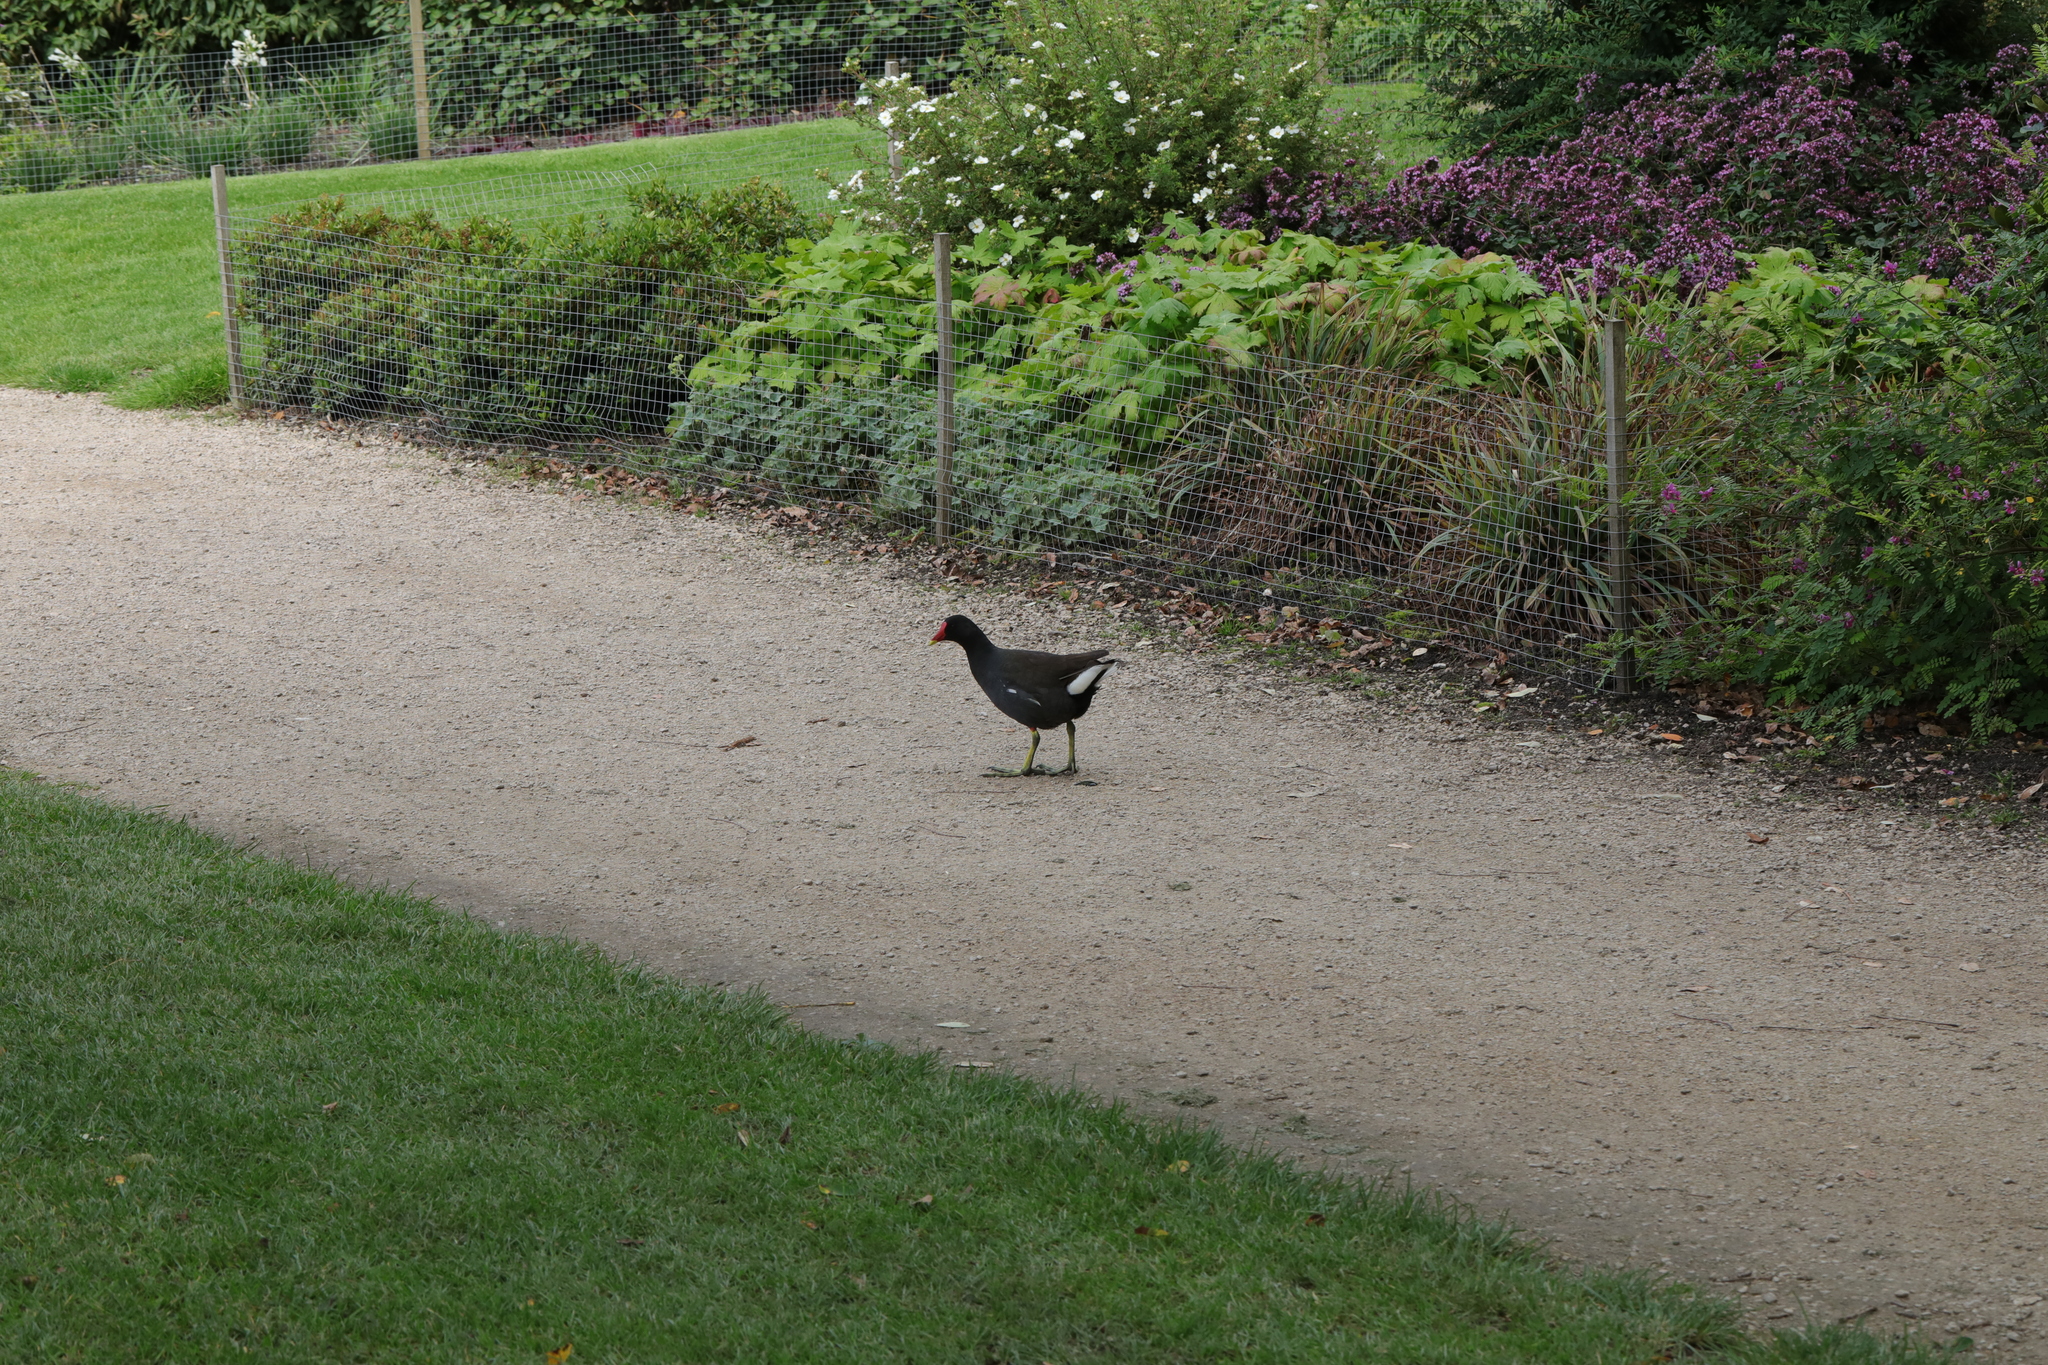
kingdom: Animalia
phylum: Chordata
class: Aves
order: Gruiformes
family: Rallidae
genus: Gallinula
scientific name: Gallinula chloropus
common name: Common moorhen
